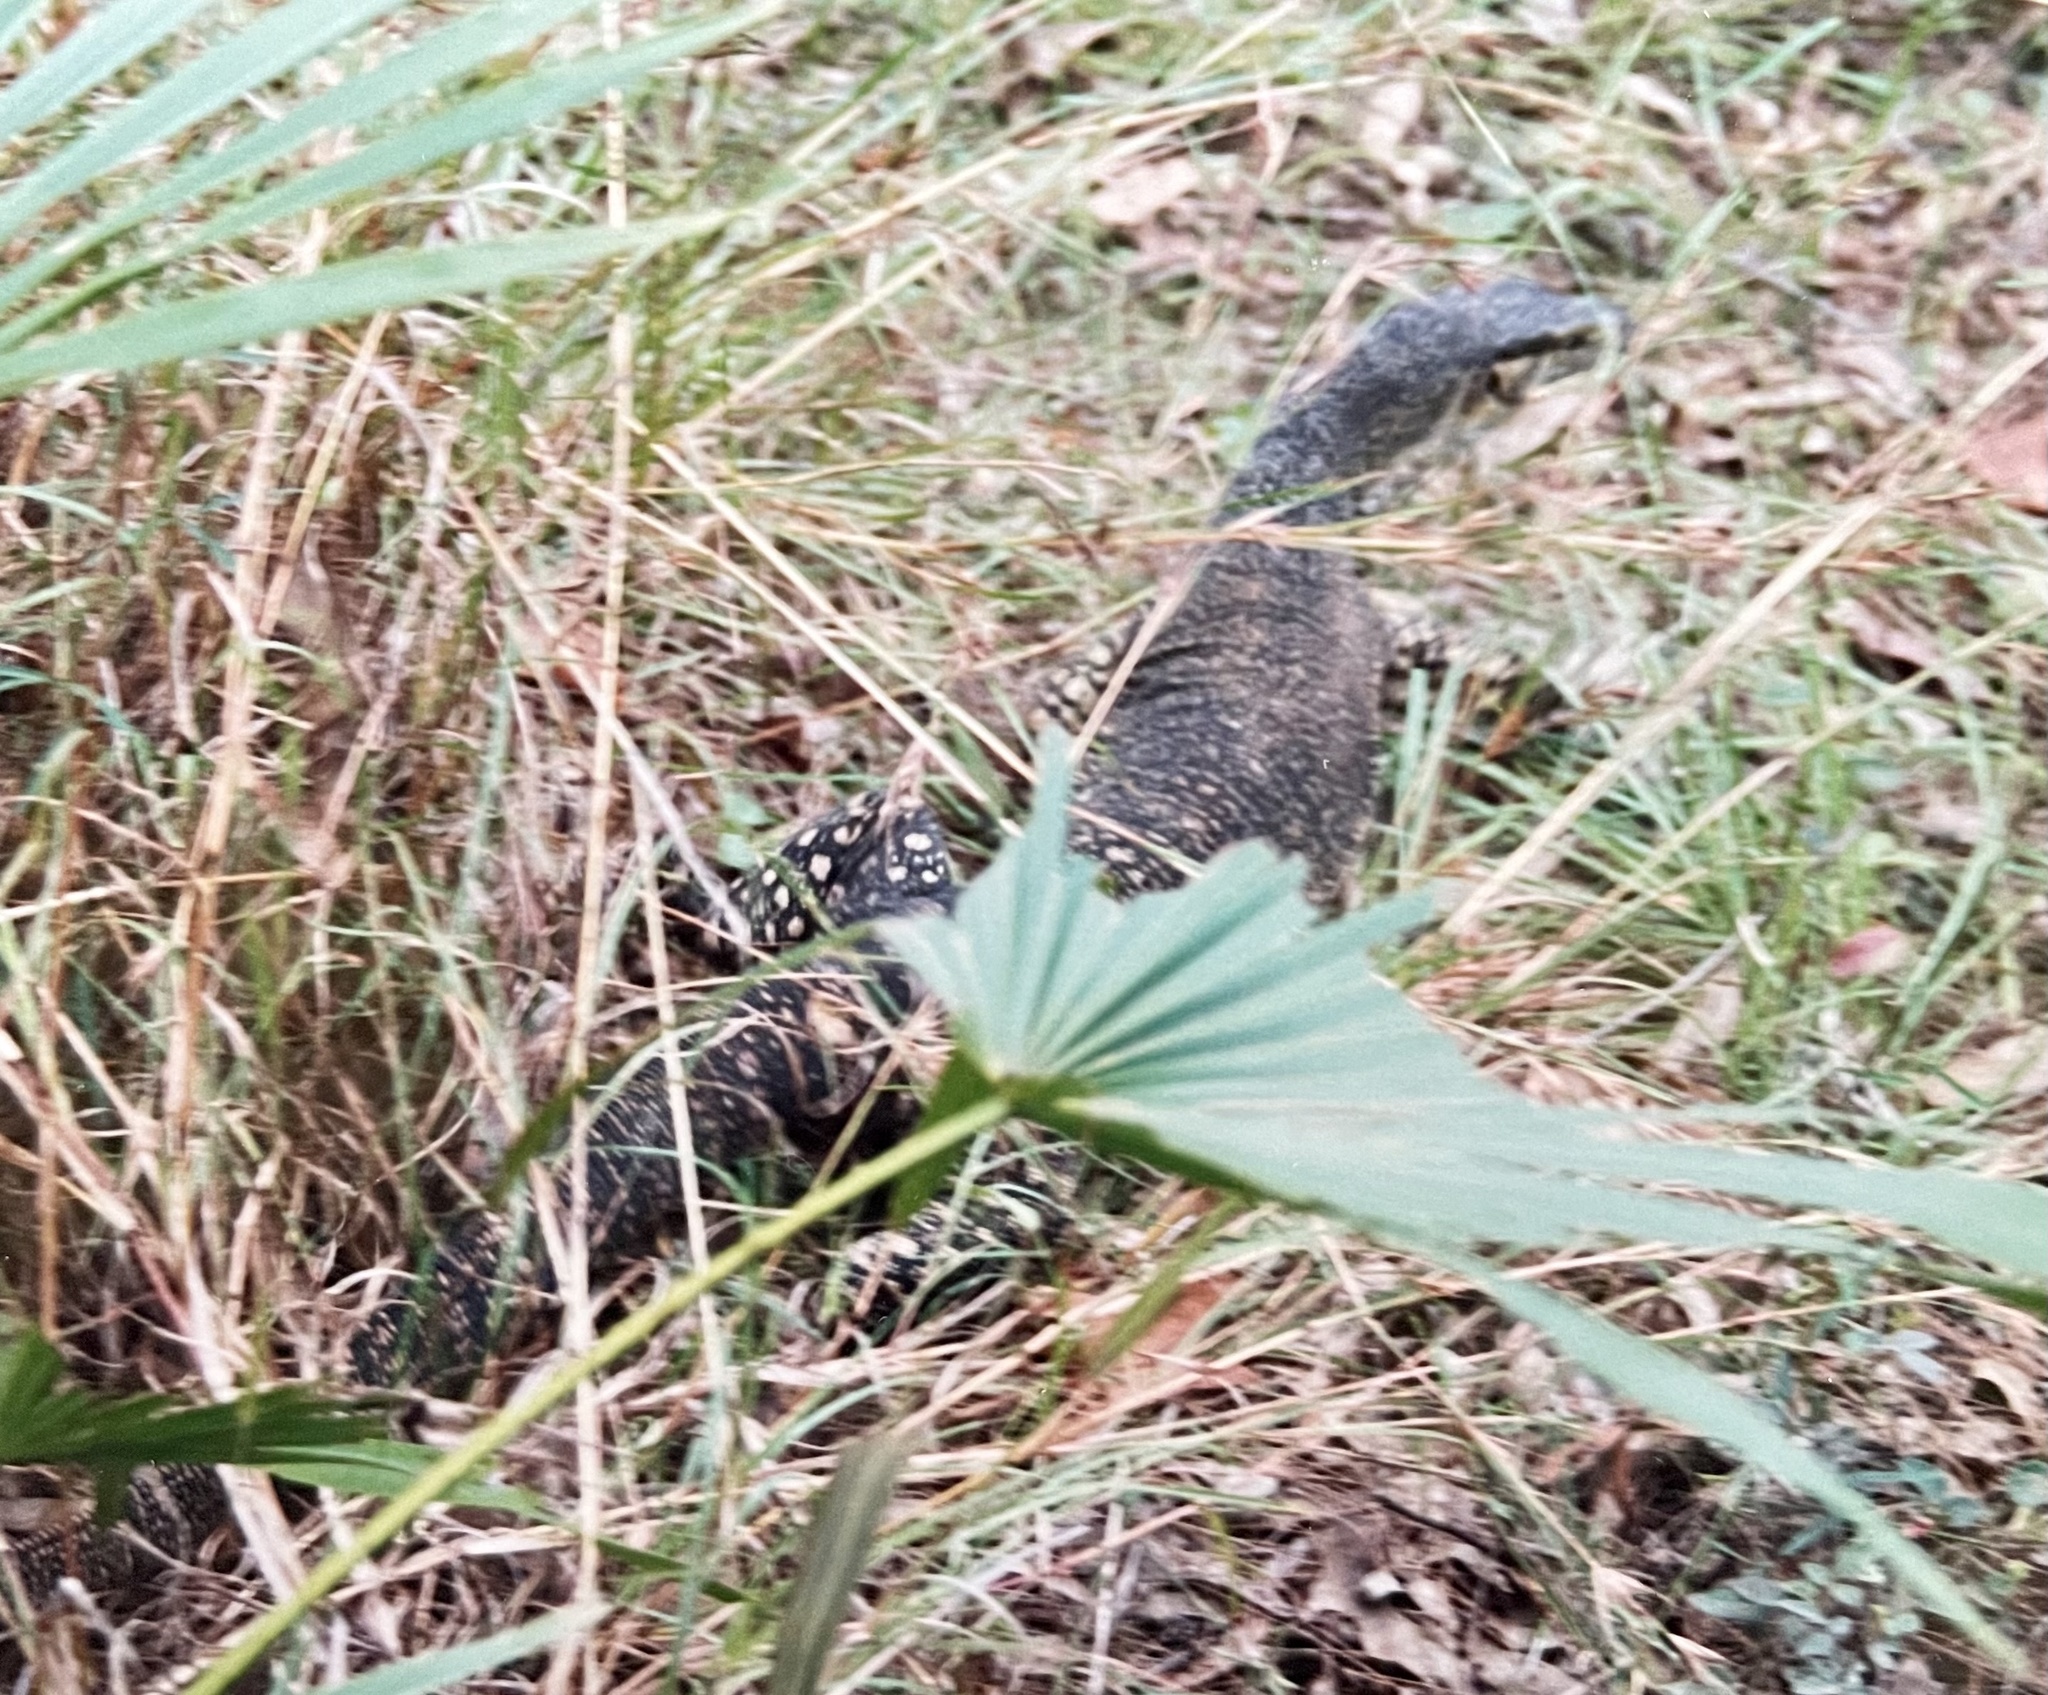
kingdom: Animalia
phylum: Chordata
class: Squamata
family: Varanidae
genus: Varanus
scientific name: Varanus varius
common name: Lace monitor
